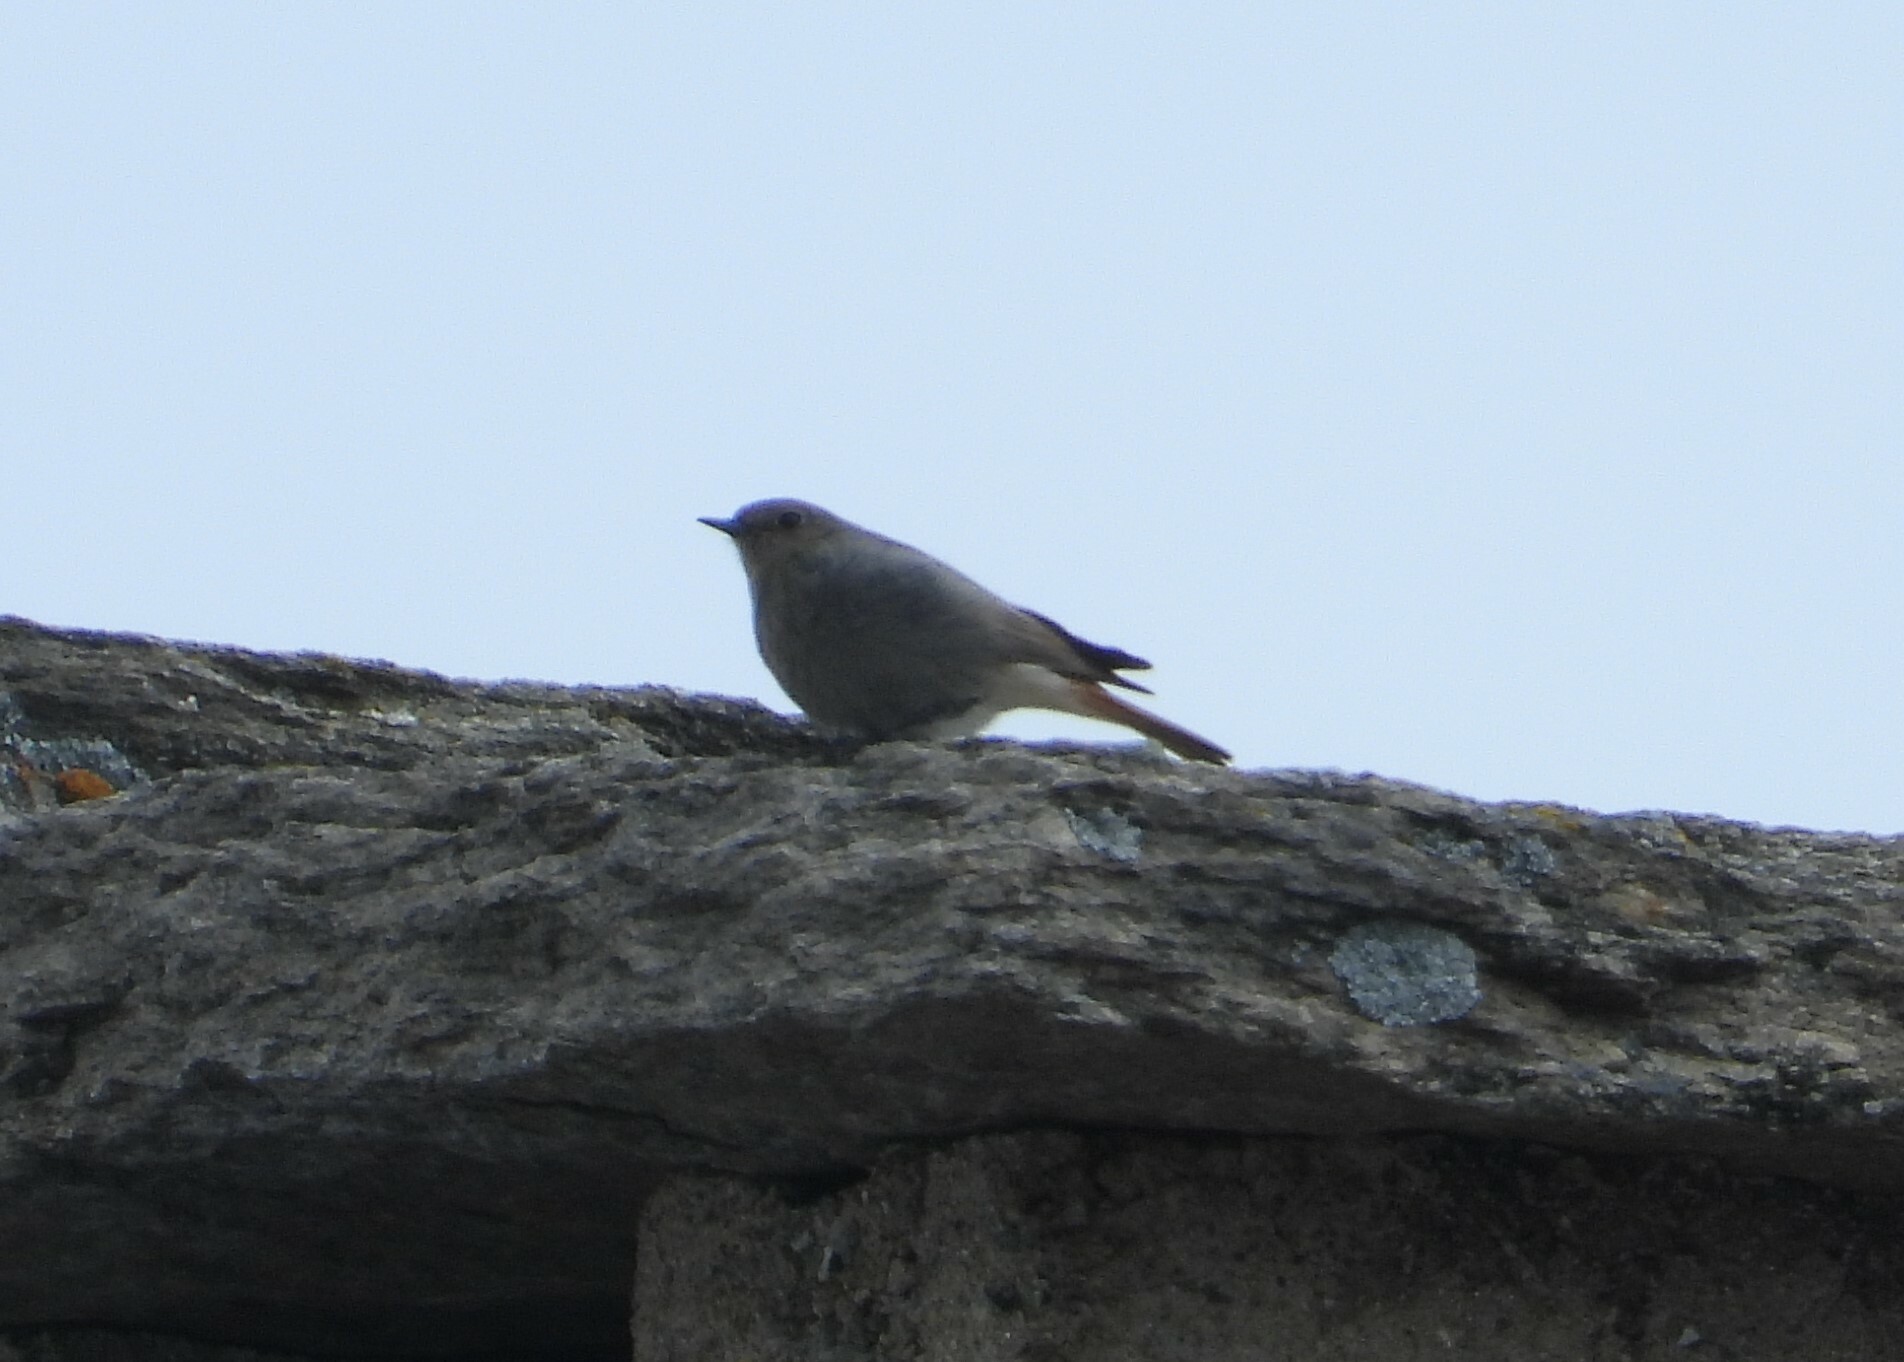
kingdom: Animalia
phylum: Chordata
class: Aves
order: Passeriformes
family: Muscicapidae
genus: Phoenicurus
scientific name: Phoenicurus ochruros
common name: Black redstart
